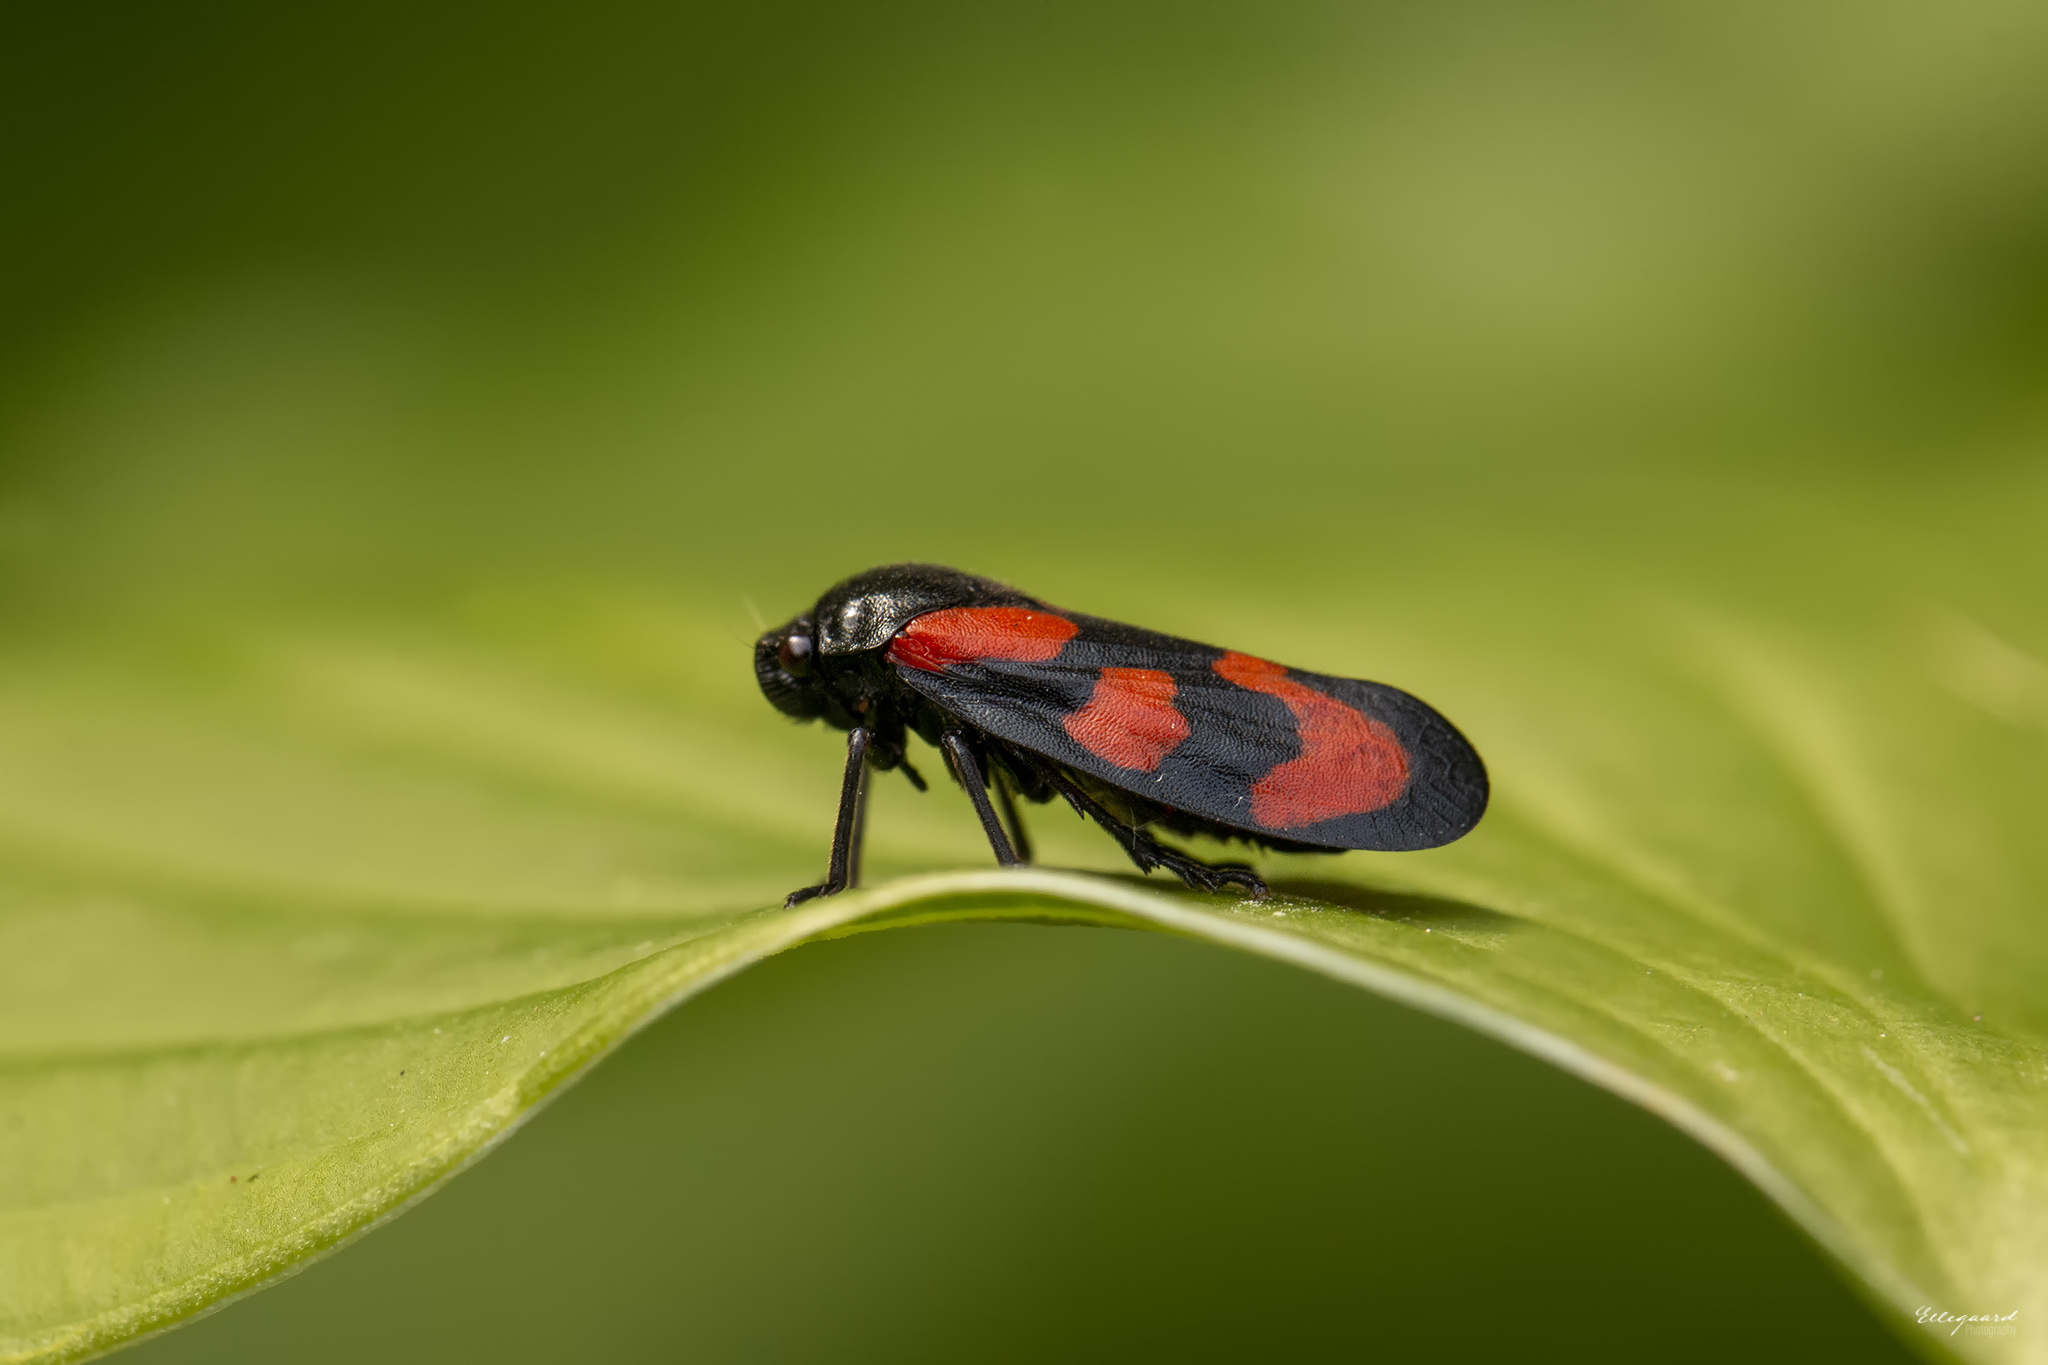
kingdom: Animalia
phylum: Arthropoda
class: Insecta
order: Hemiptera
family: Cercopidae
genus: Cercopis
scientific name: Cercopis vulnerata
